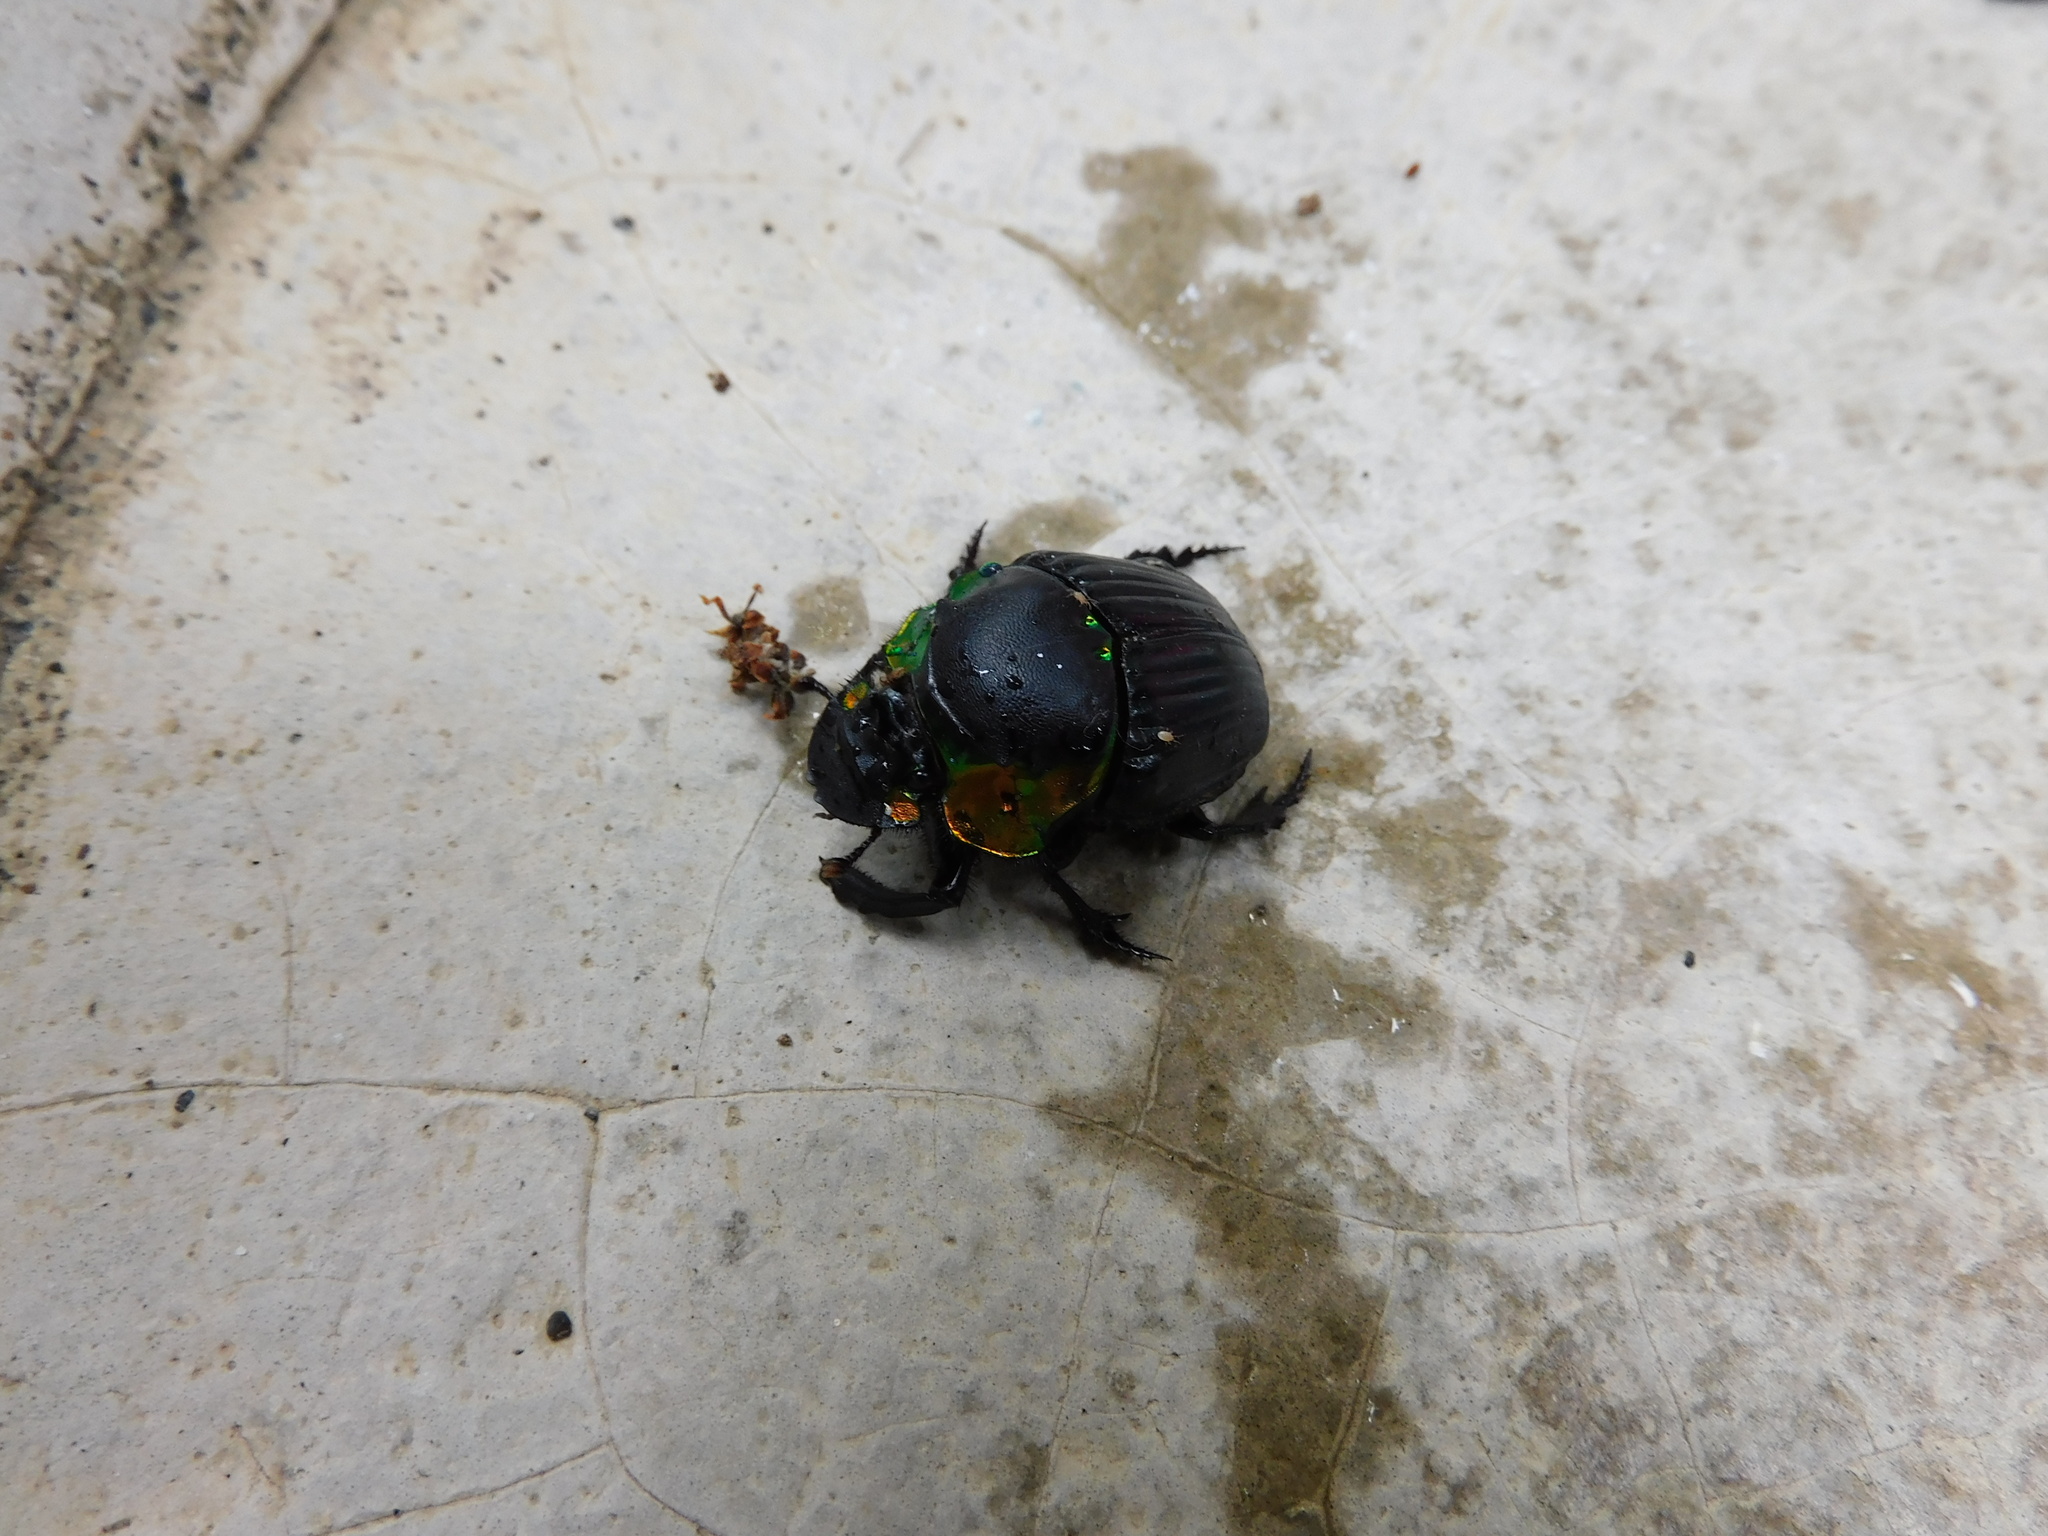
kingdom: Animalia
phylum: Arthropoda
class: Insecta
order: Coleoptera
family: Scarabaeidae
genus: Diabroctis
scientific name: Diabroctis cadmus
